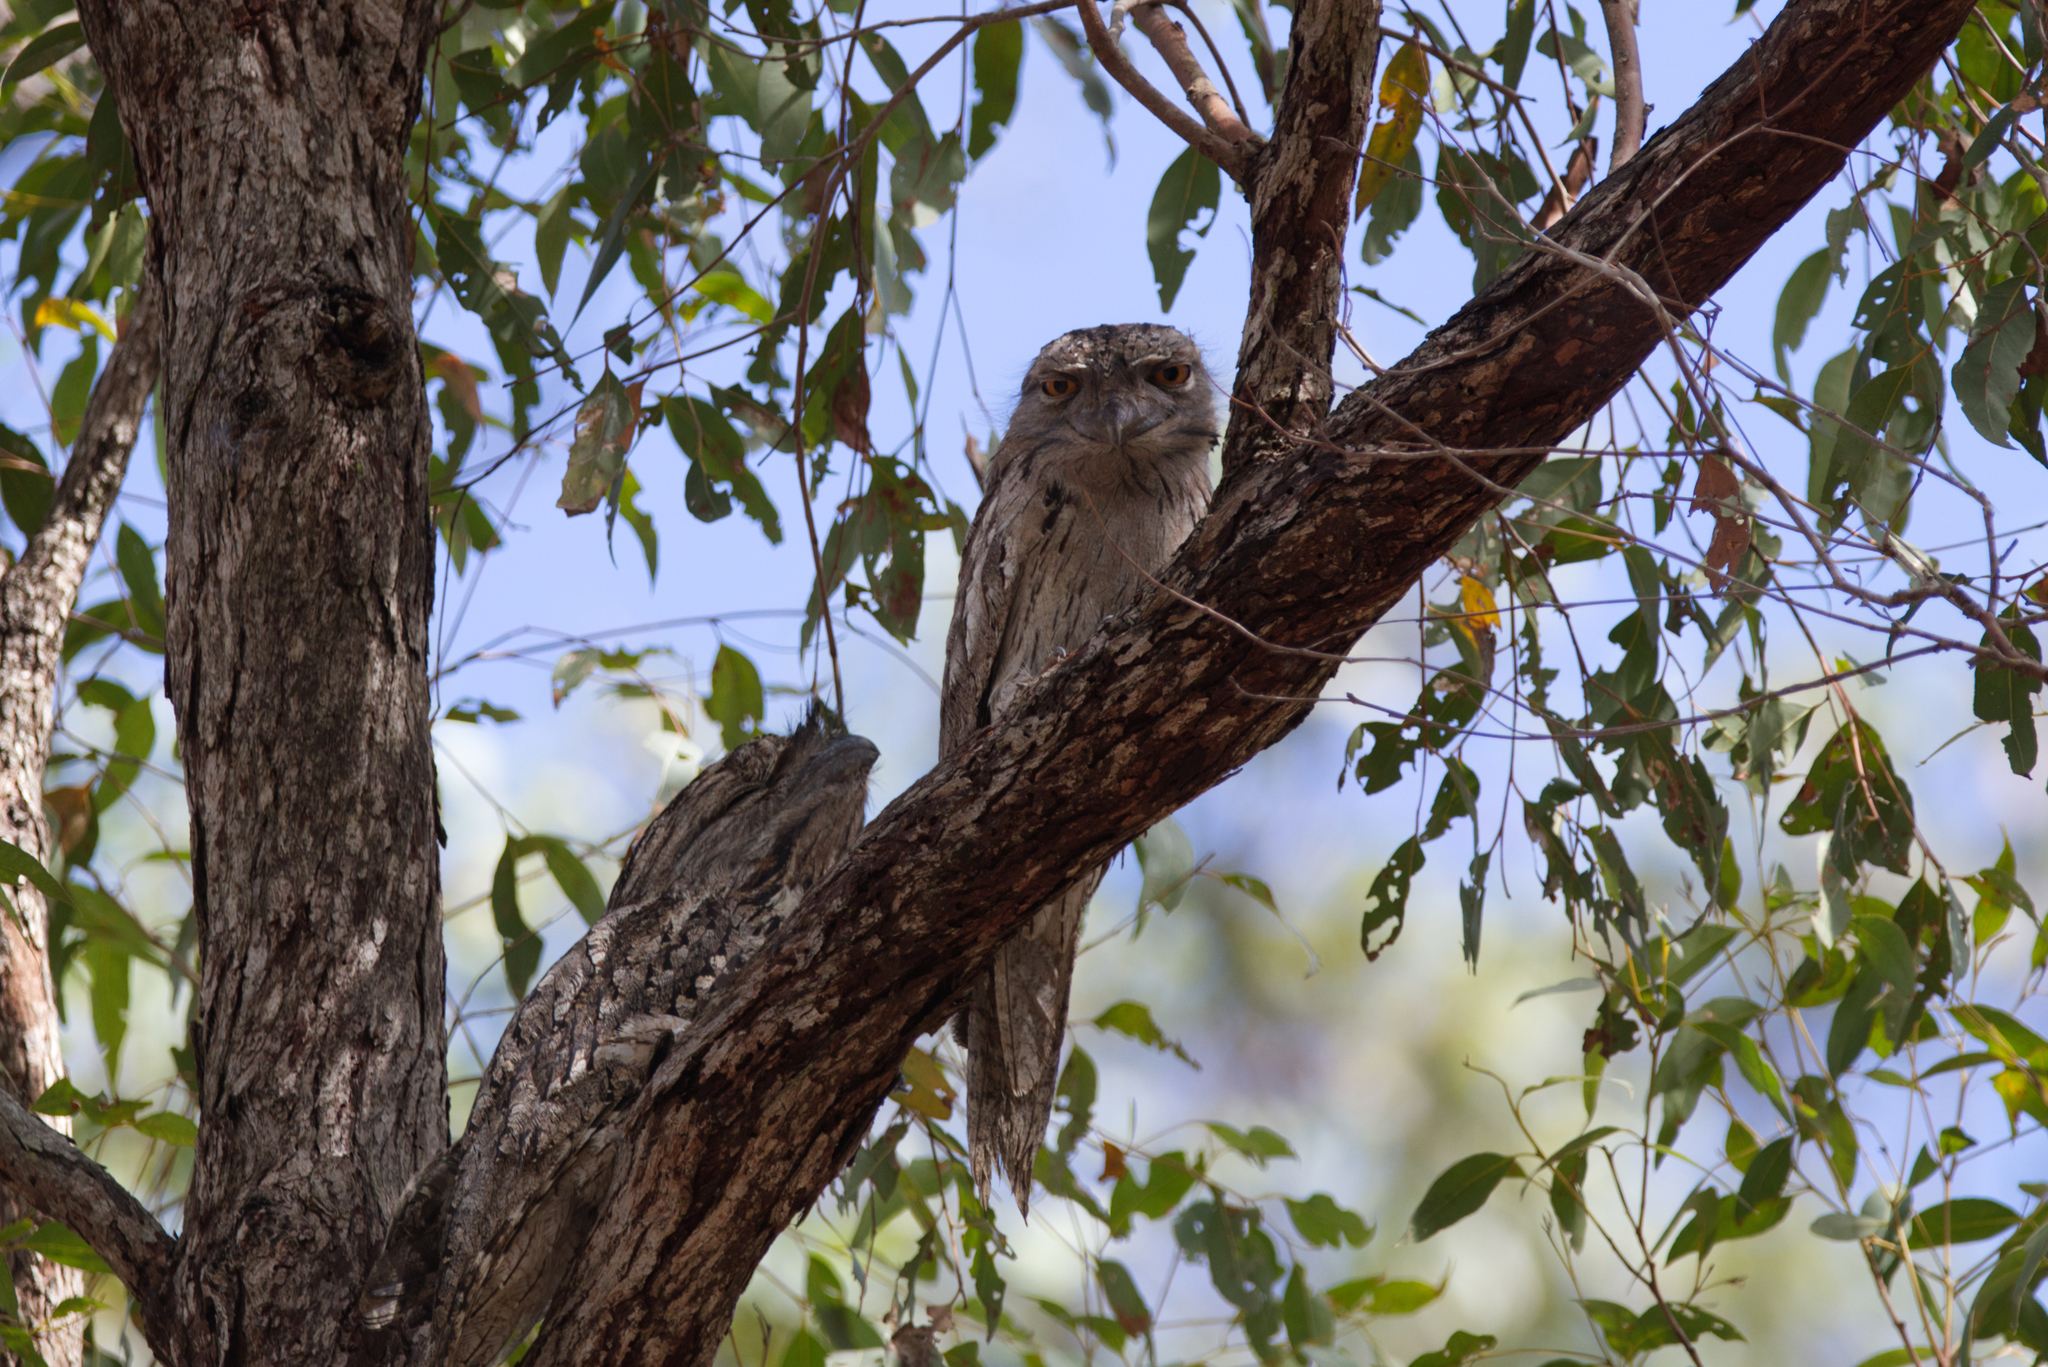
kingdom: Animalia
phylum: Chordata
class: Aves
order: Caprimulgiformes
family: Podargidae
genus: Podargus
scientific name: Podargus strigoides
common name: Tawny frogmouth
